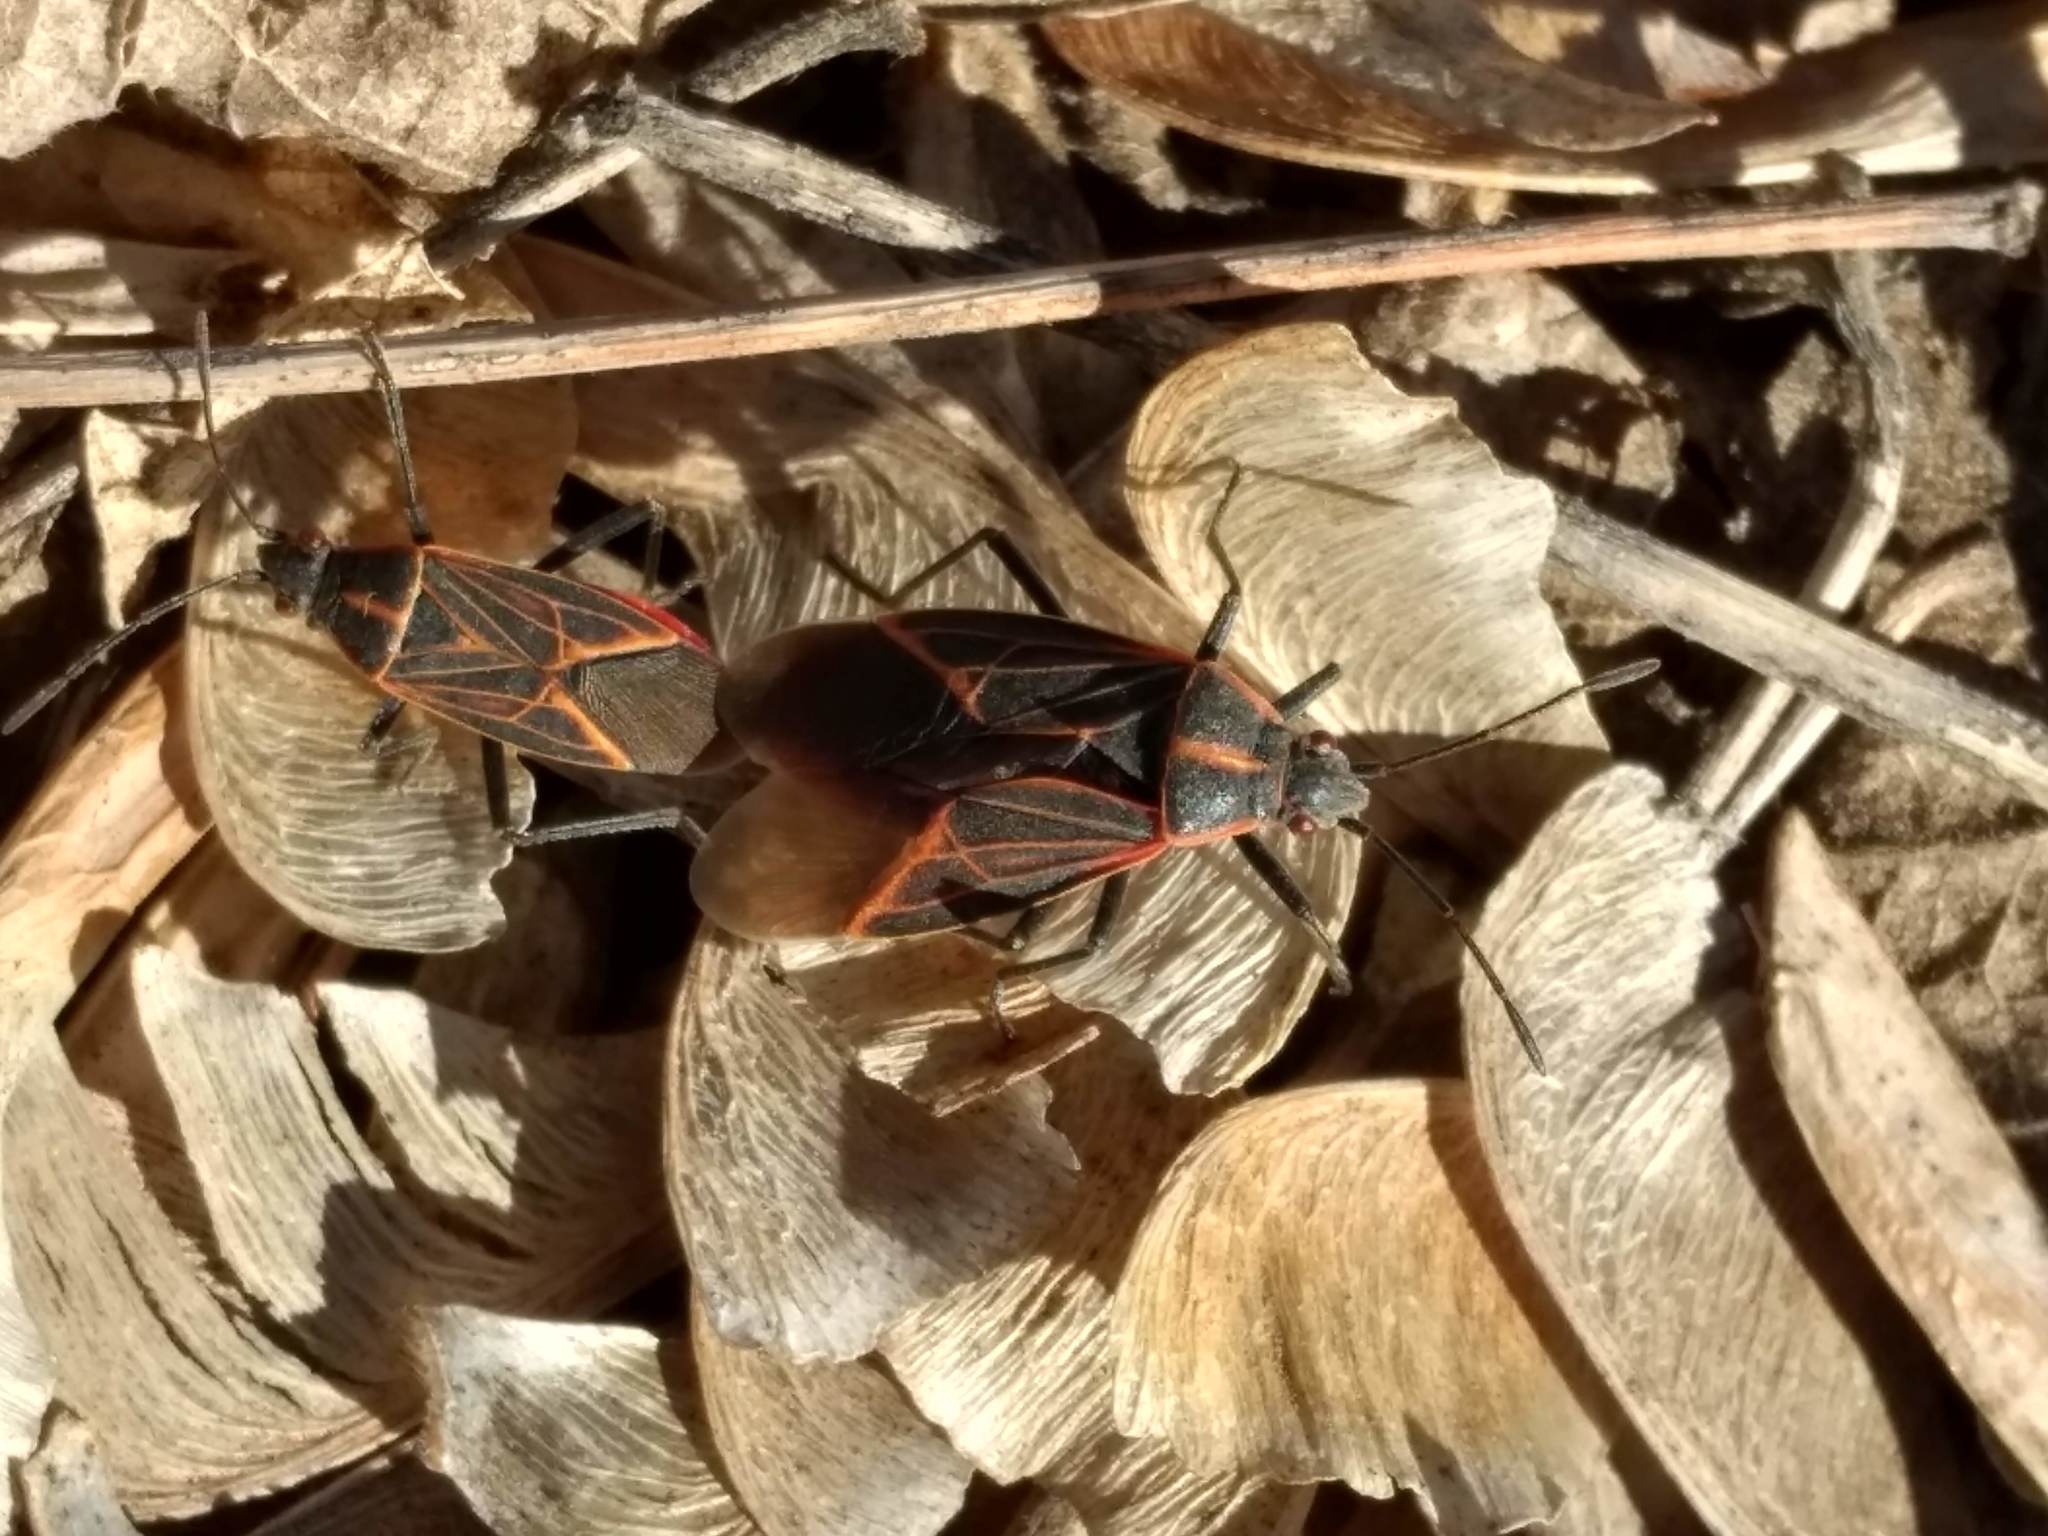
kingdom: Animalia
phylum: Arthropoda
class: Insecta
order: Hemiptera
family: Rhopalidae
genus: Boisea
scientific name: Boisea rubrolineata
